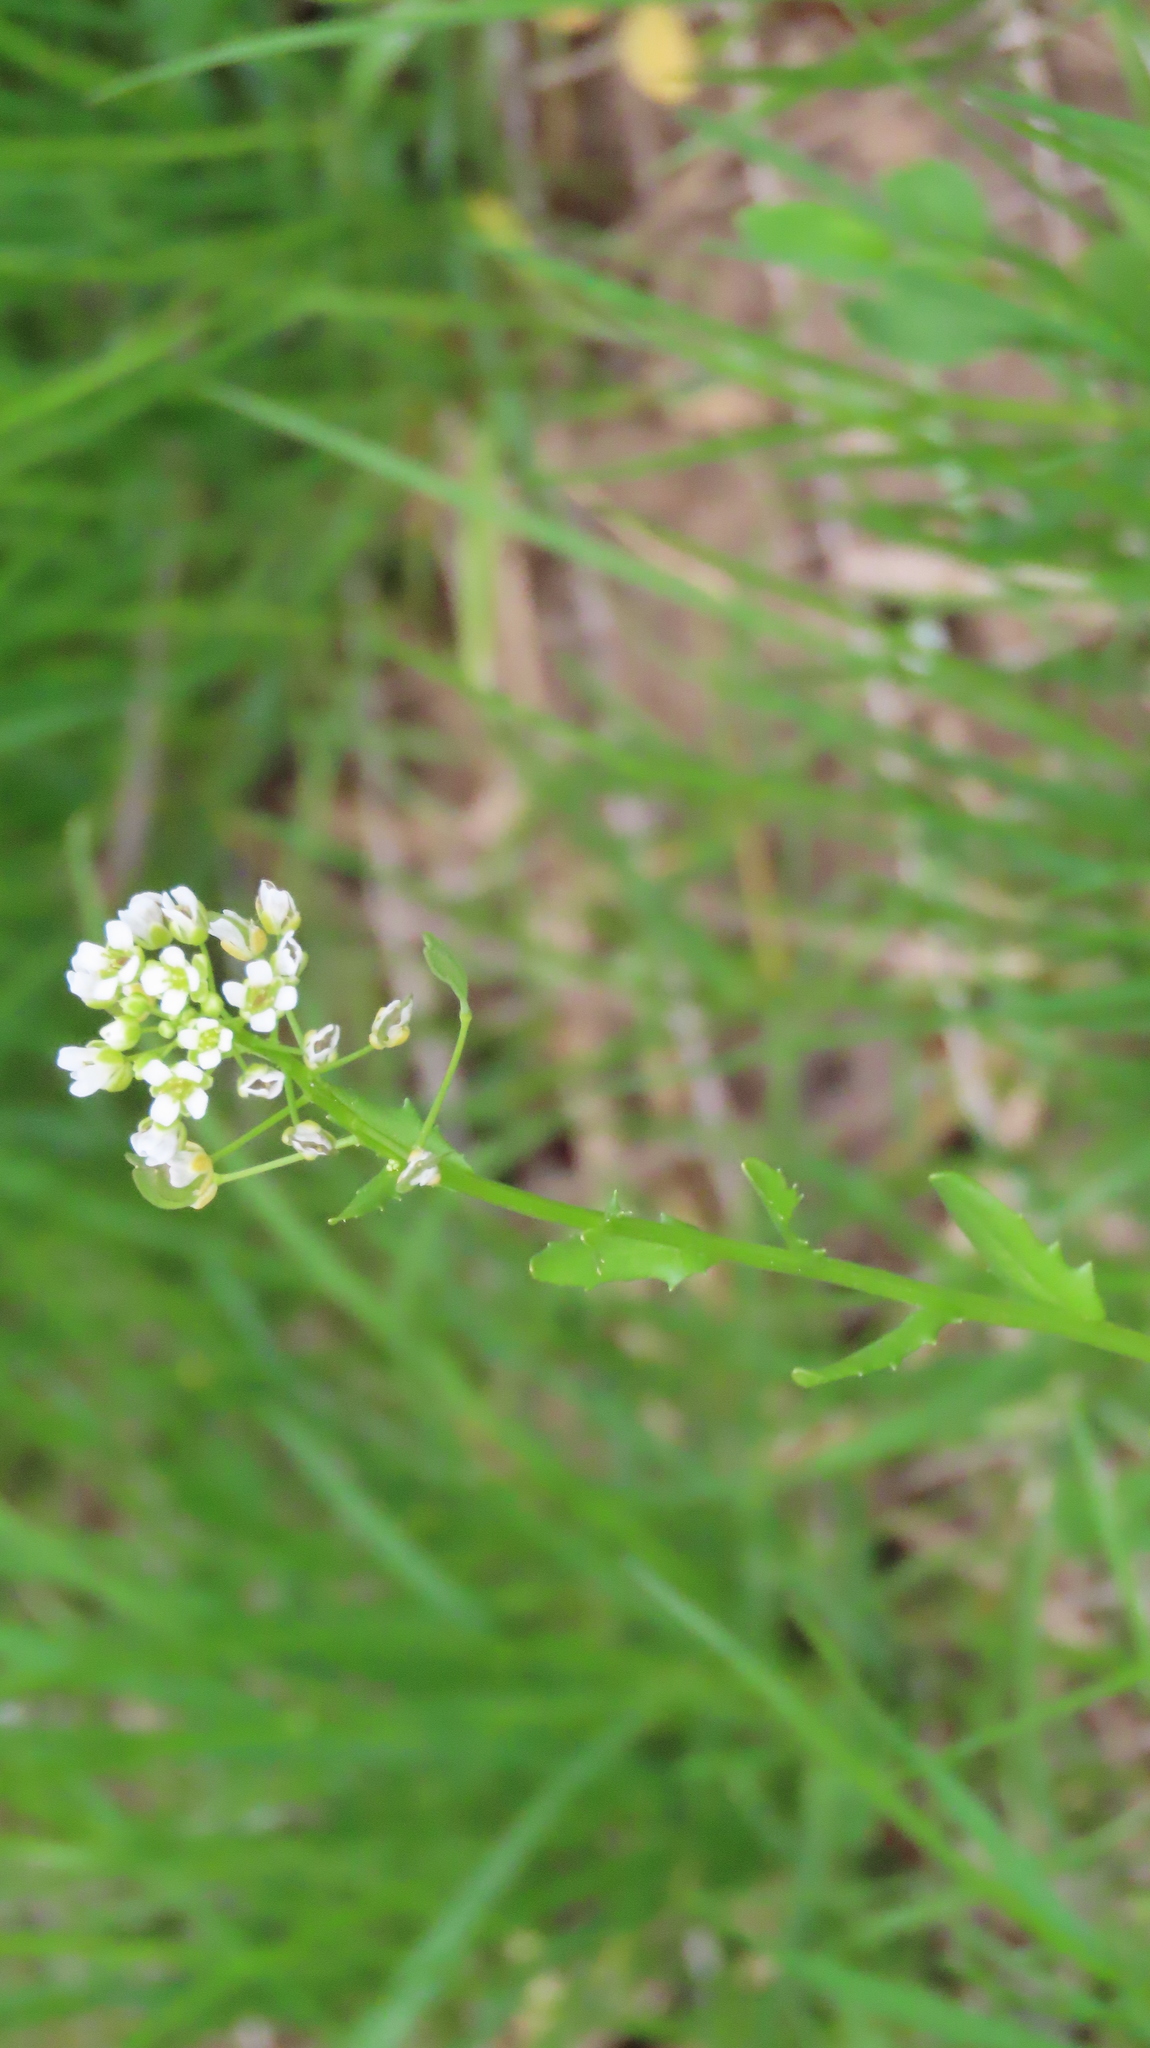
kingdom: Plantae
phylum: Tracheophyta
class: Magnoliopsida
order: Brassicales
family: Brassicaceae
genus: Thlaspi
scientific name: Thlaspi arvense
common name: Field pennycress
